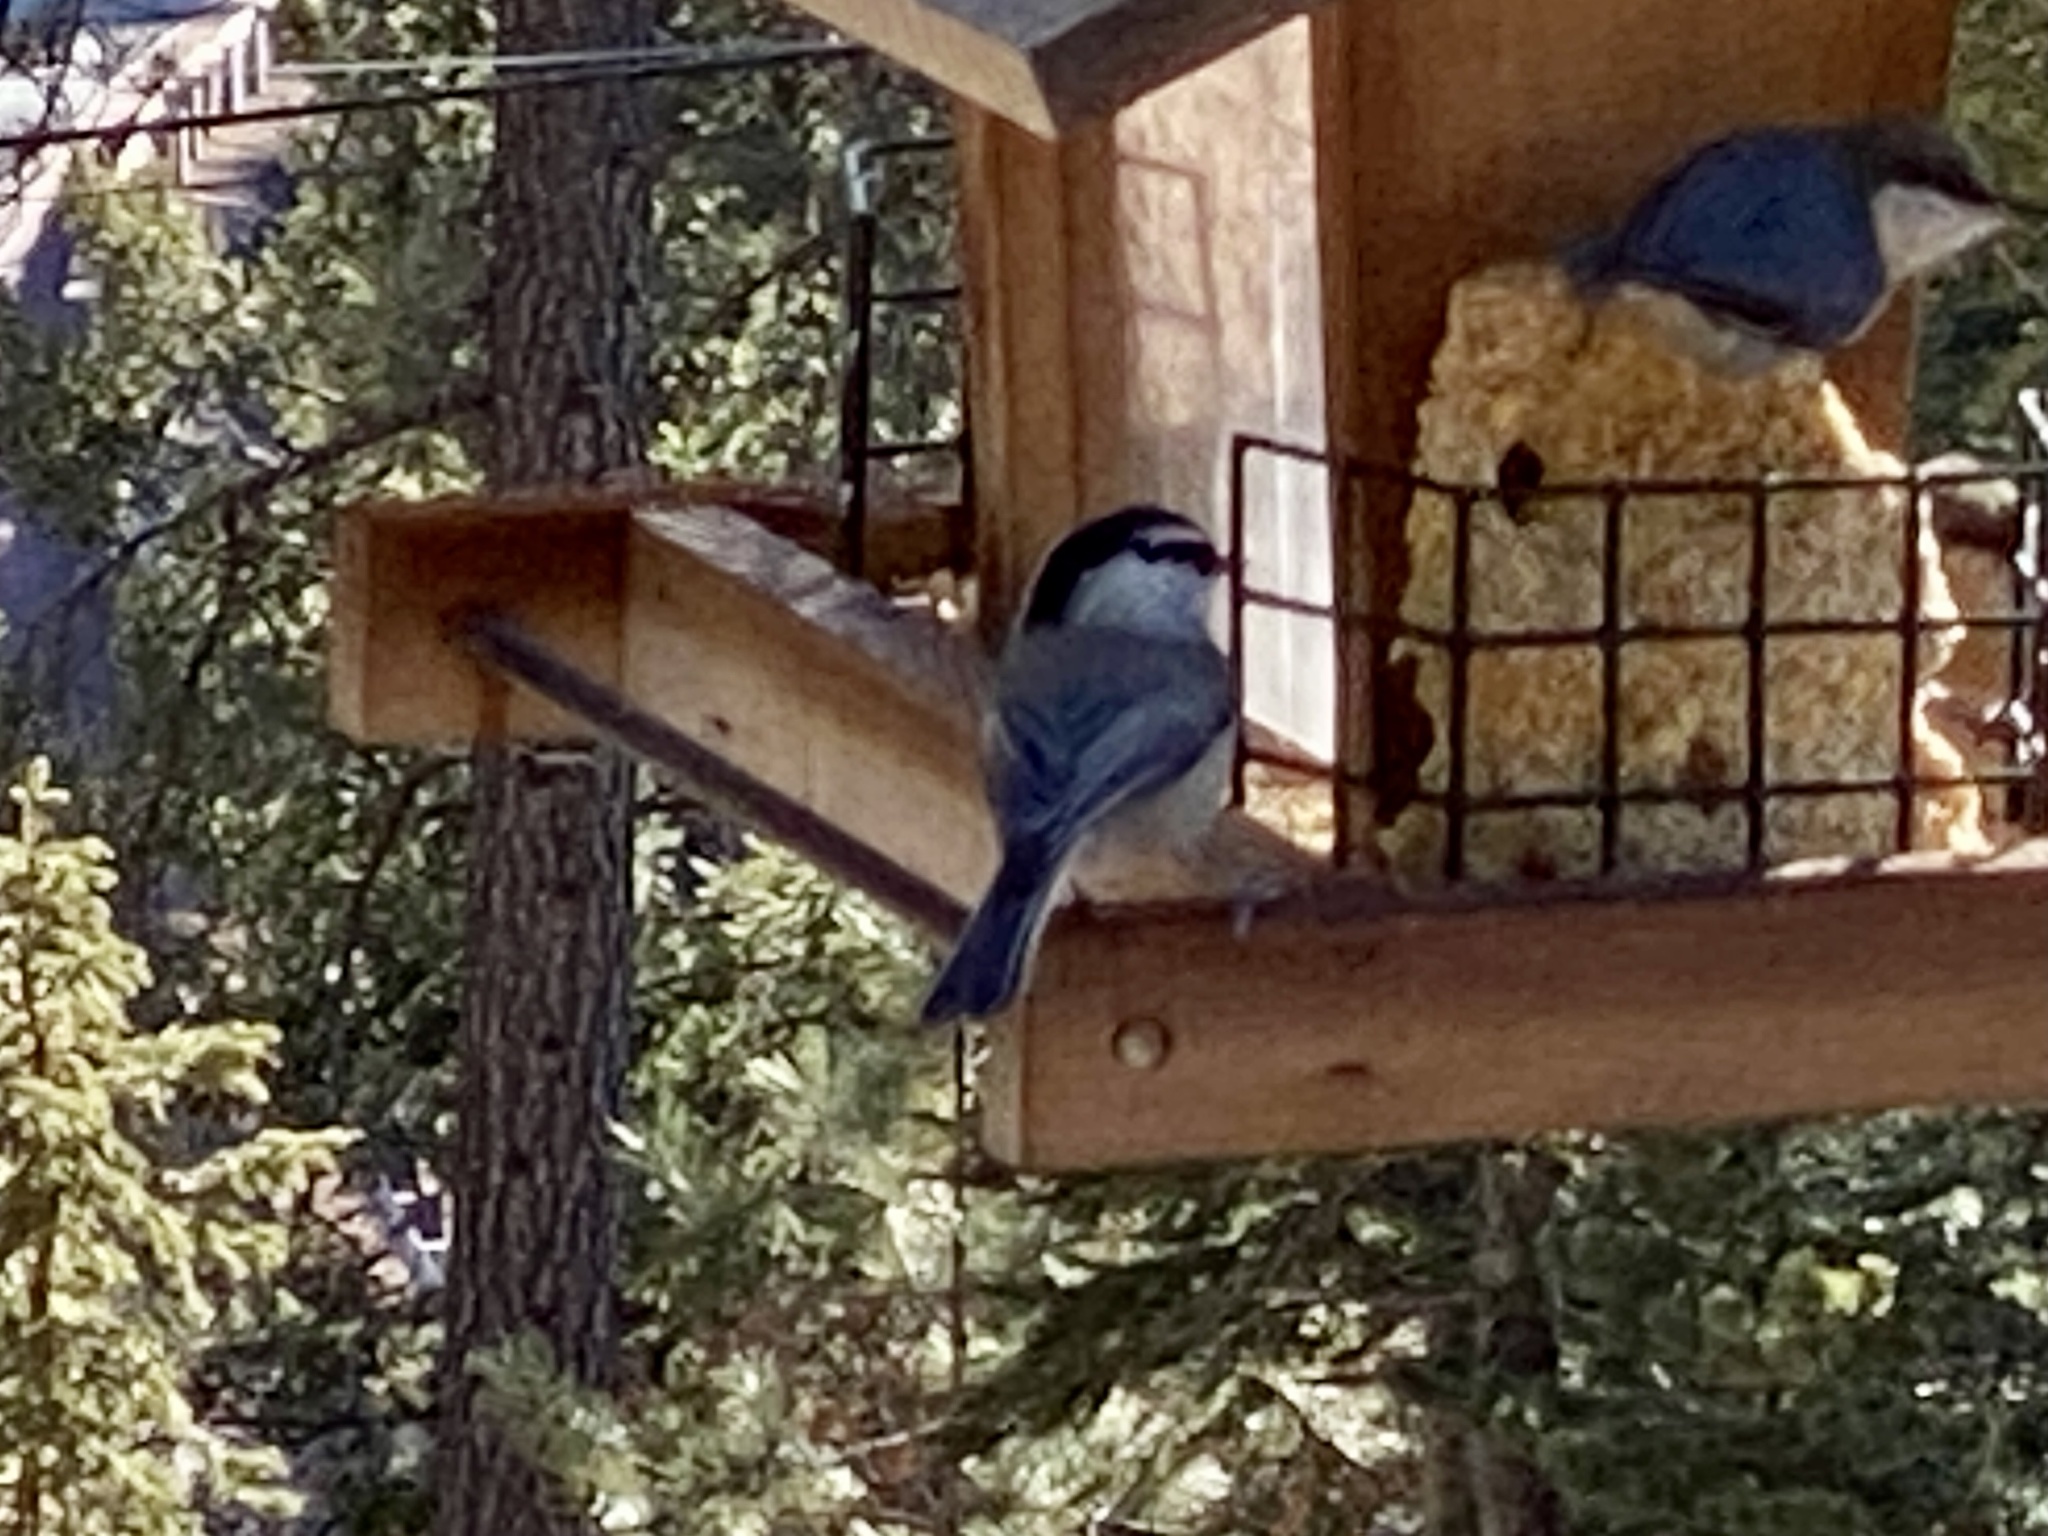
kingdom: Animalia
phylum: Chordata
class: Aves
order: Passeriformes
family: Paridae
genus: Poecile
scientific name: Poecile gambeli
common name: Mountain chickadee
